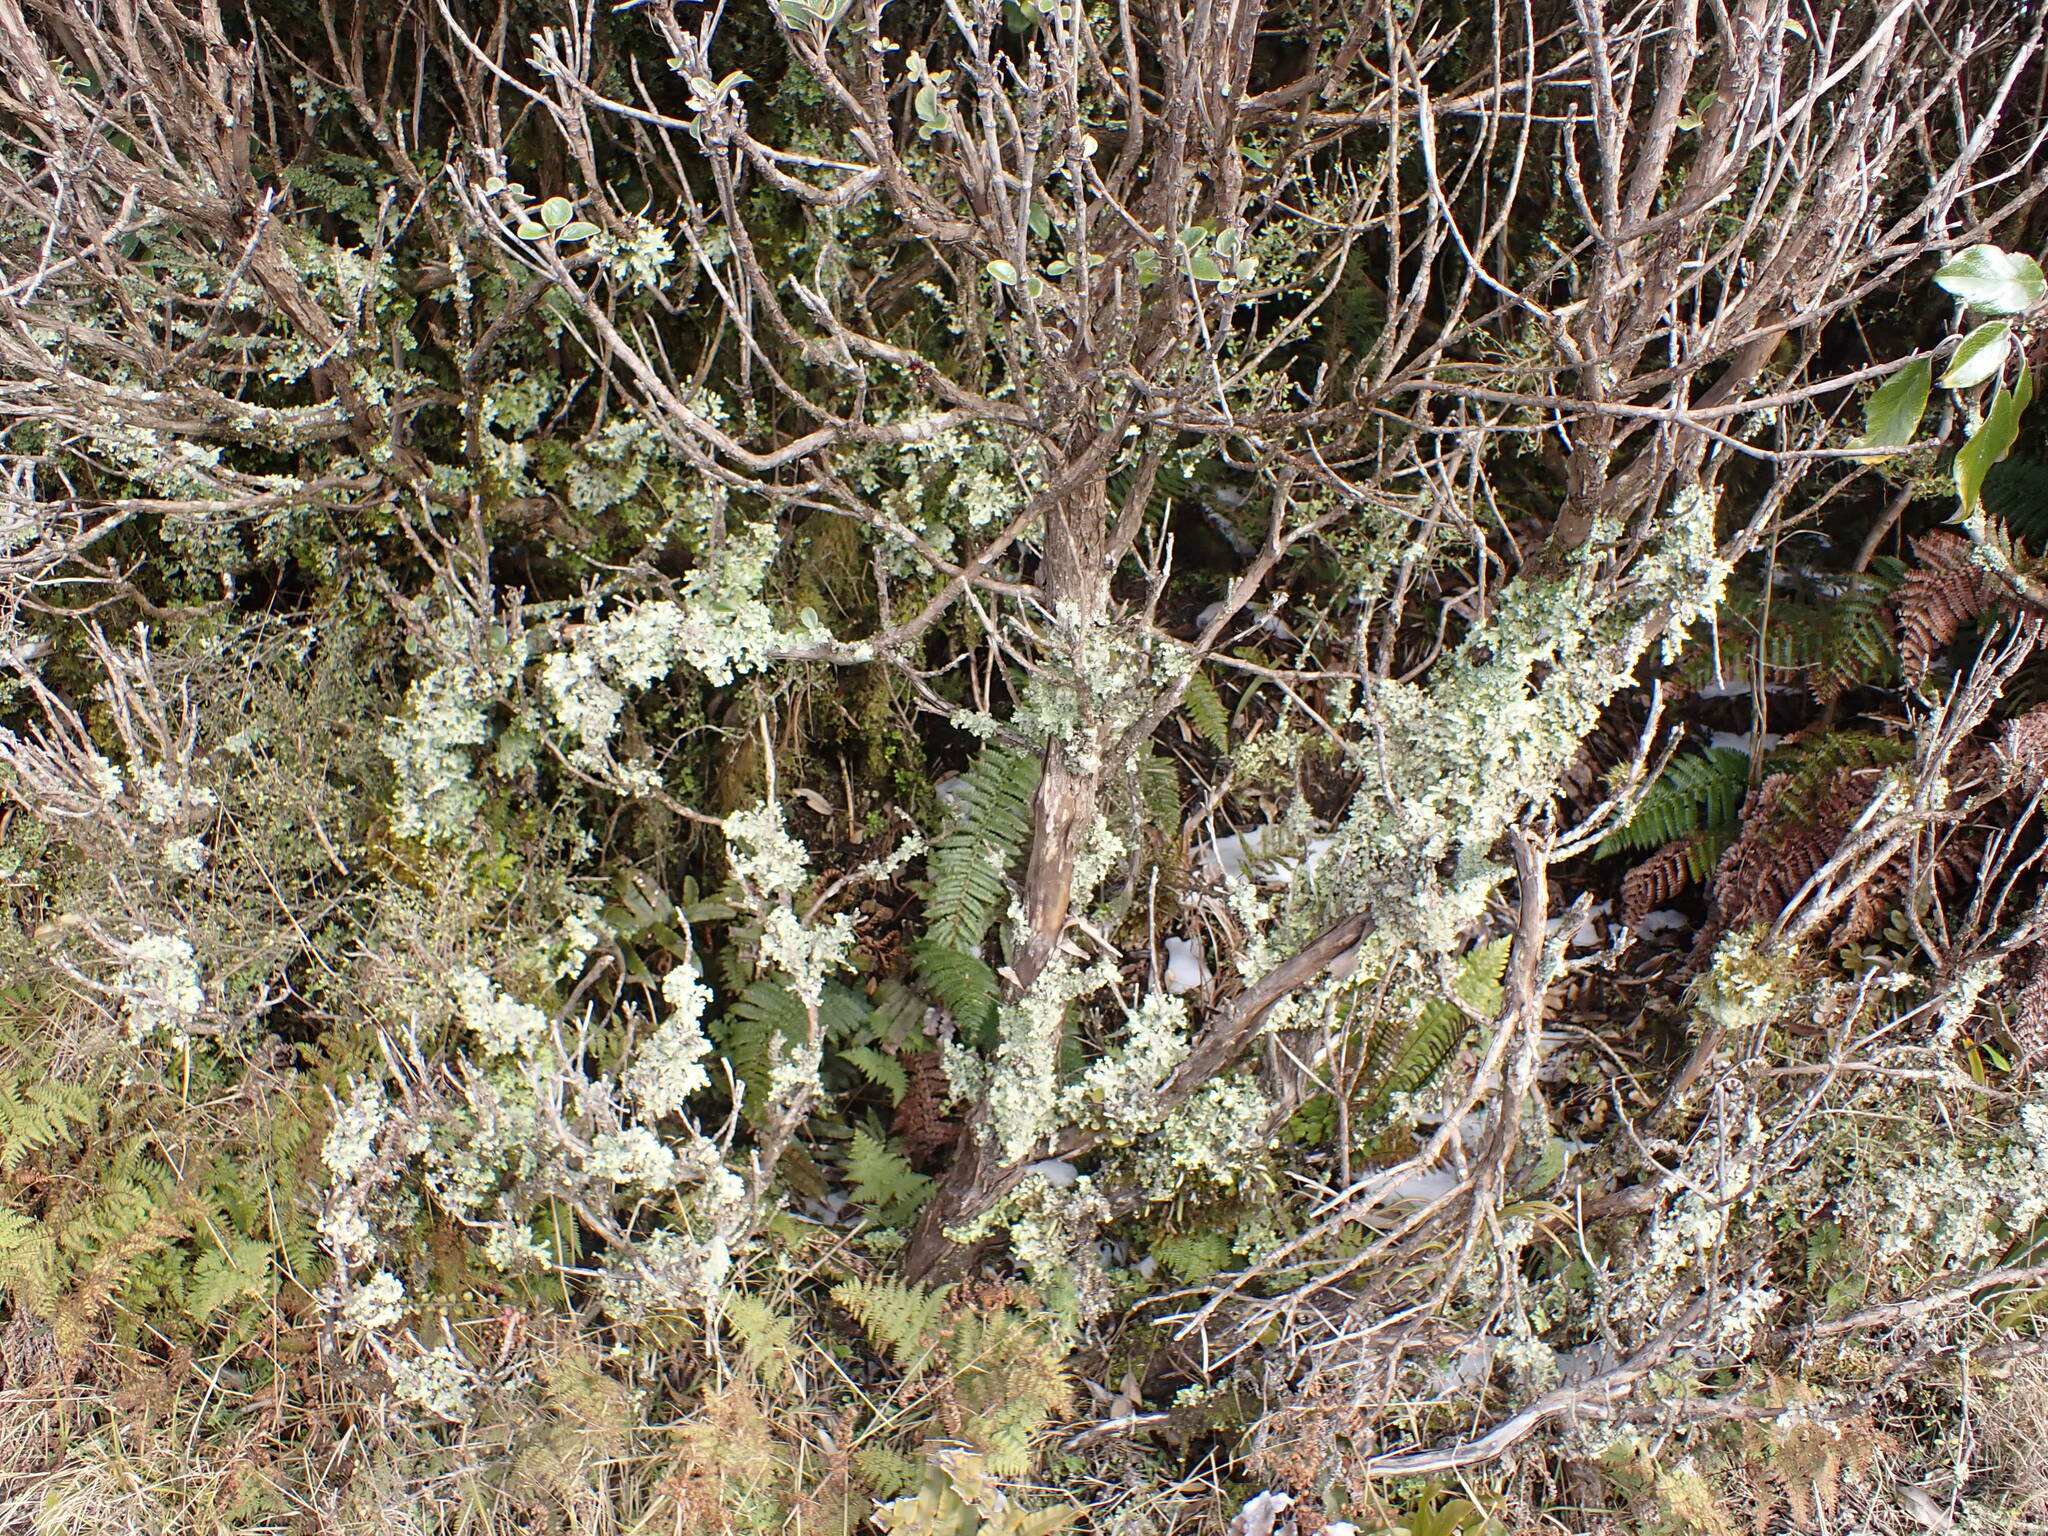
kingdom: Fungi
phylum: Ascomycota
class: Lecanoromycetes
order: Peltigerales
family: Lobariaceae
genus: Pseudocyphellaria
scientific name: Pseudocyphellaria glabra
